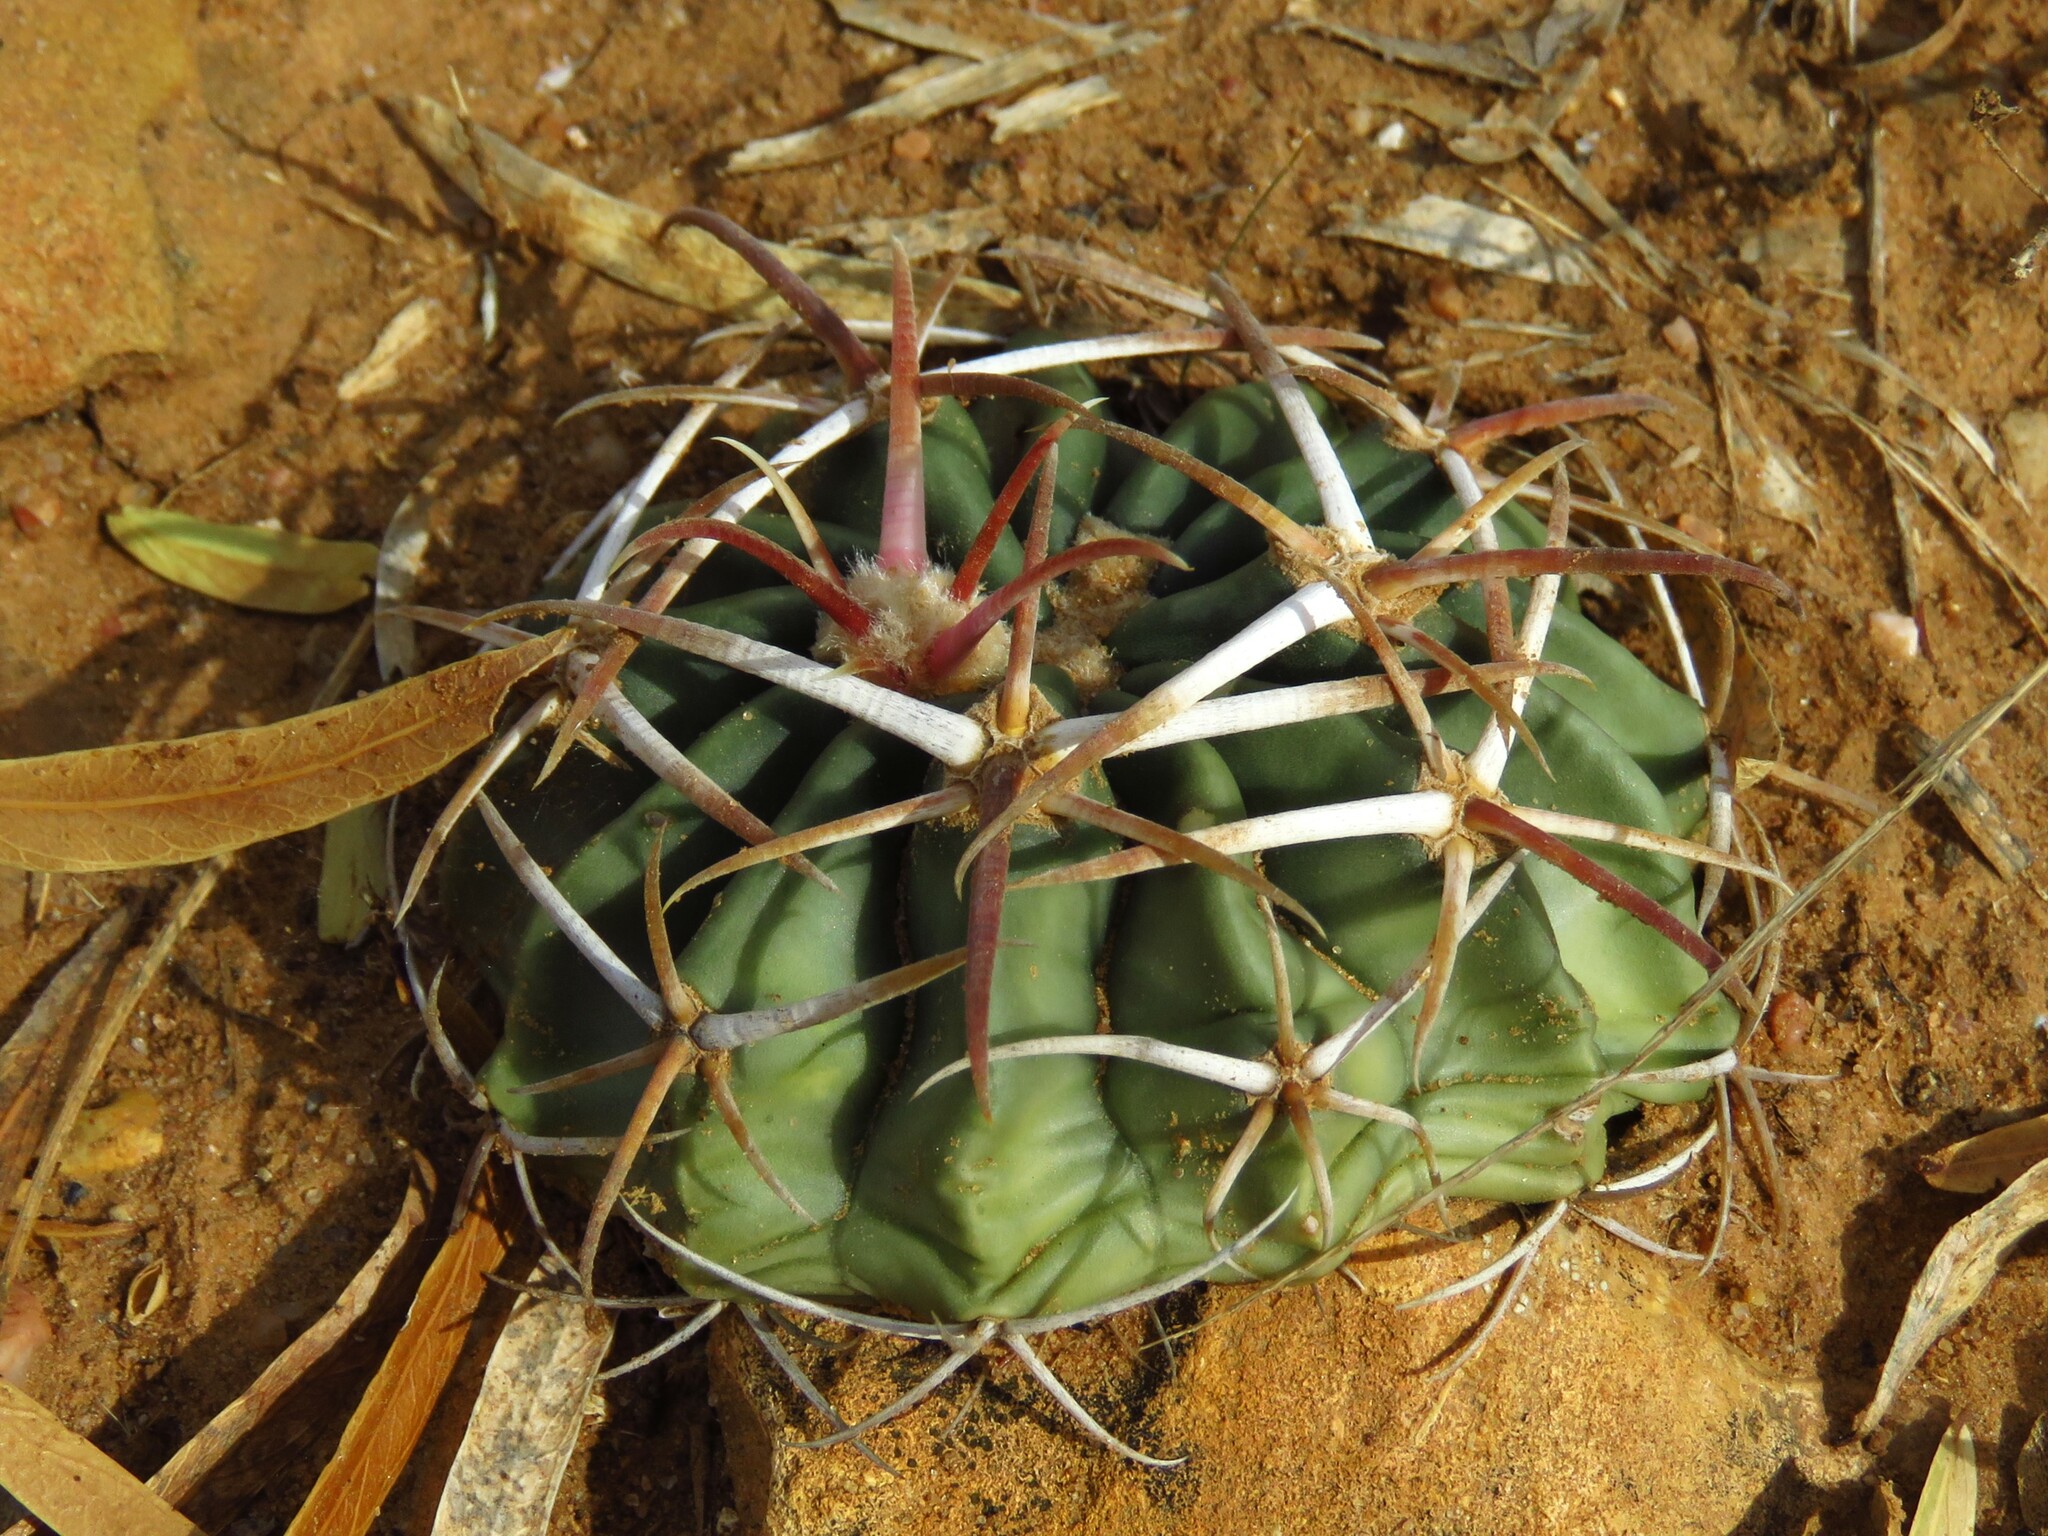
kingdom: Plantae
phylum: Tracheophyta
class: Magnoliopsida
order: Caryophyllales
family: Cactaceae
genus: Echinocactus
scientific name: Echinocactus texensis
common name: Devil's pincushion
